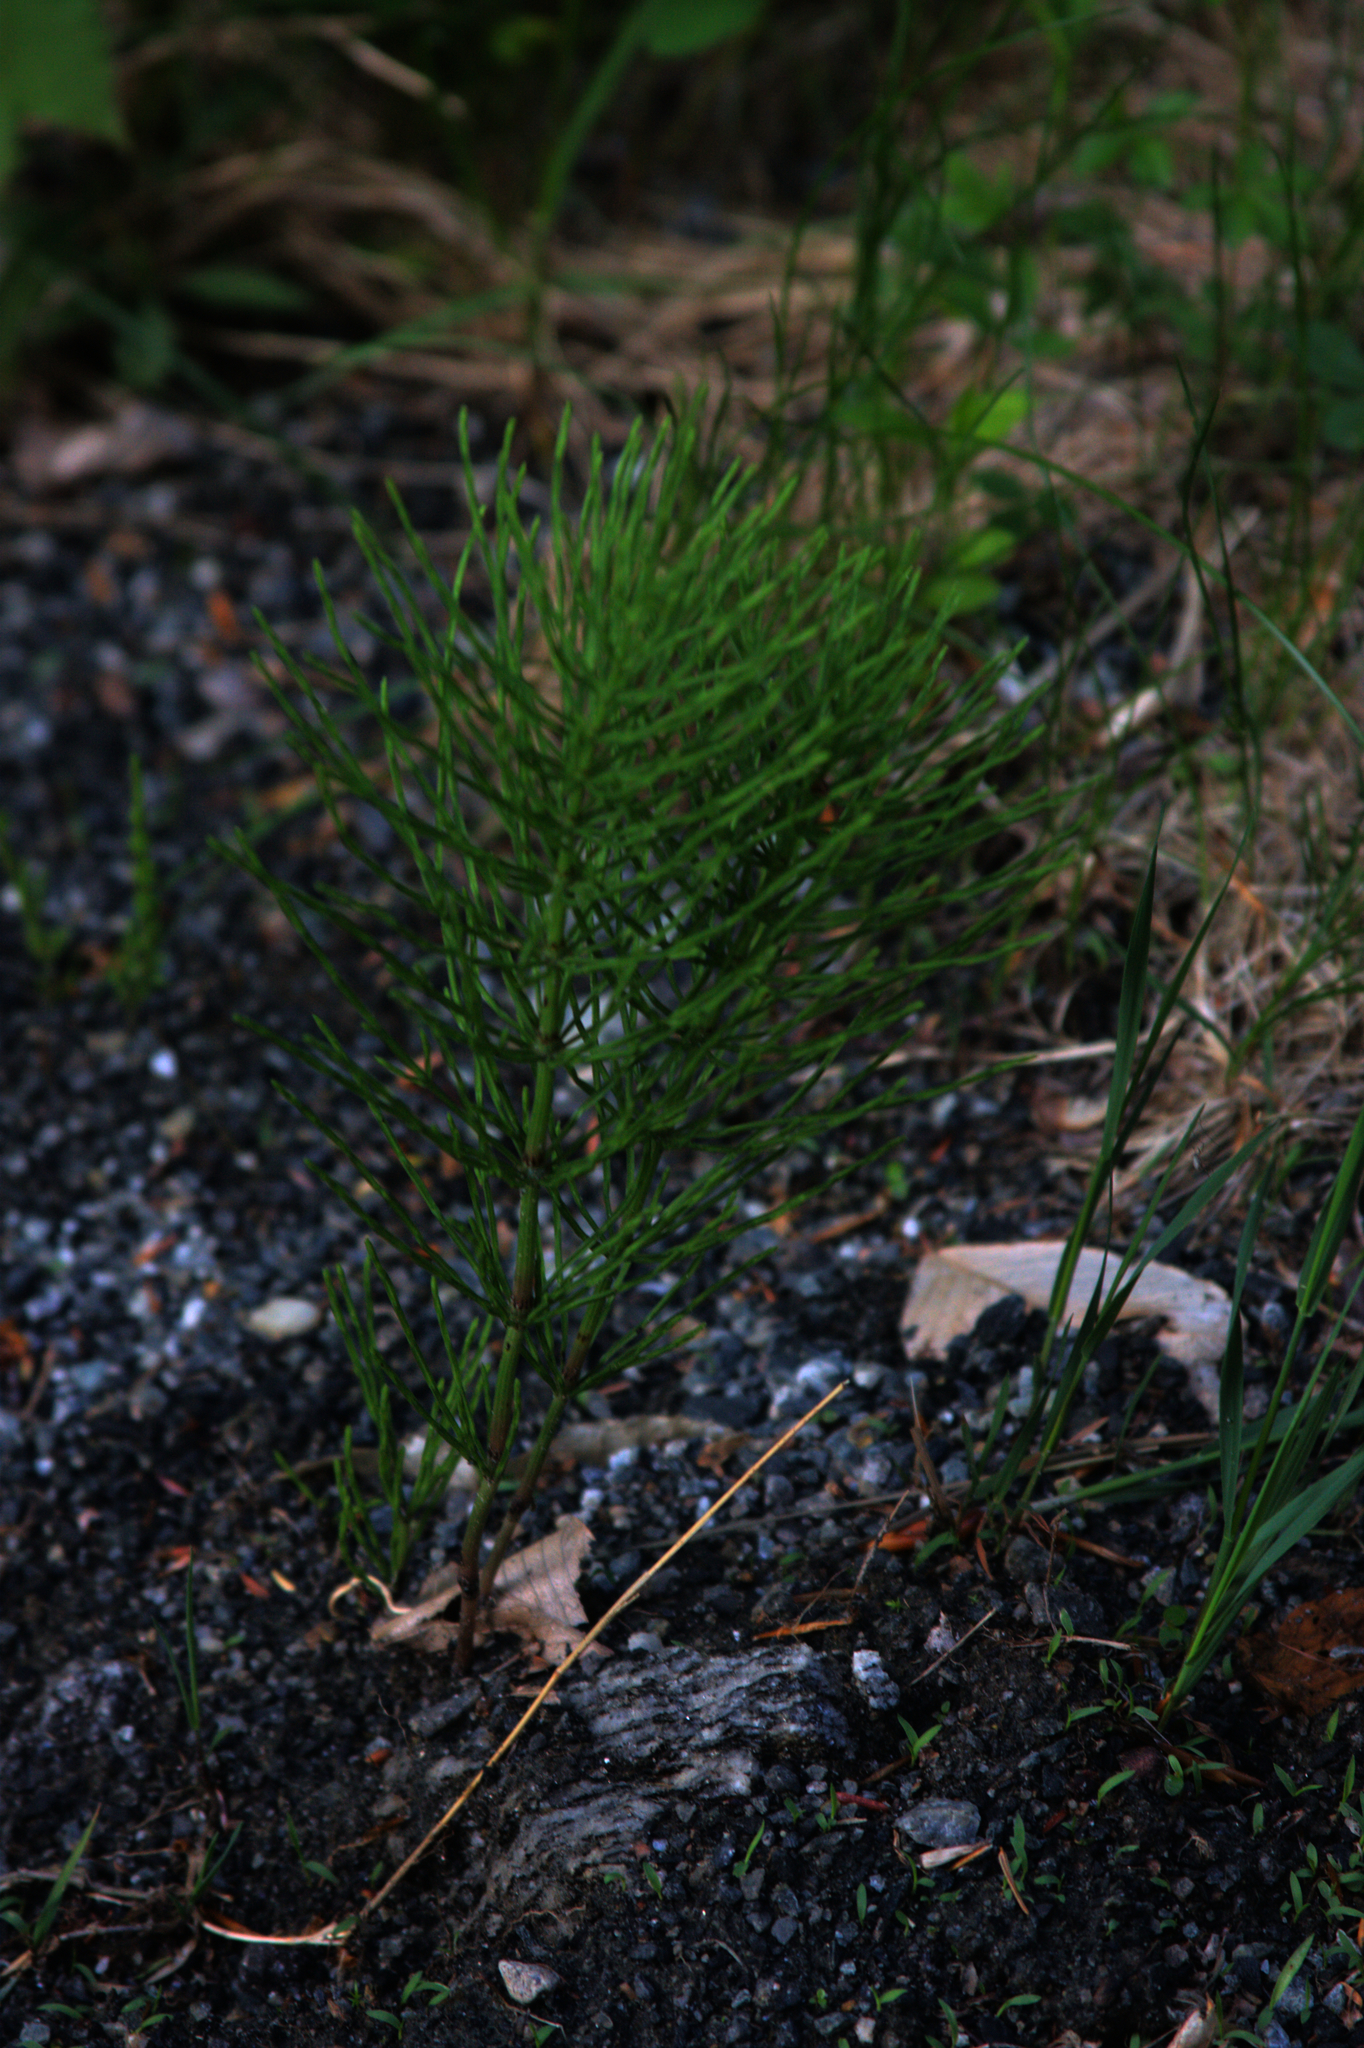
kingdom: Plantae
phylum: Tracheophyta
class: Polypodiopsida
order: Equisetales
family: Equisetaceae
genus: Equisetum
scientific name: Equisetum arvense
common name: Field horsetail
